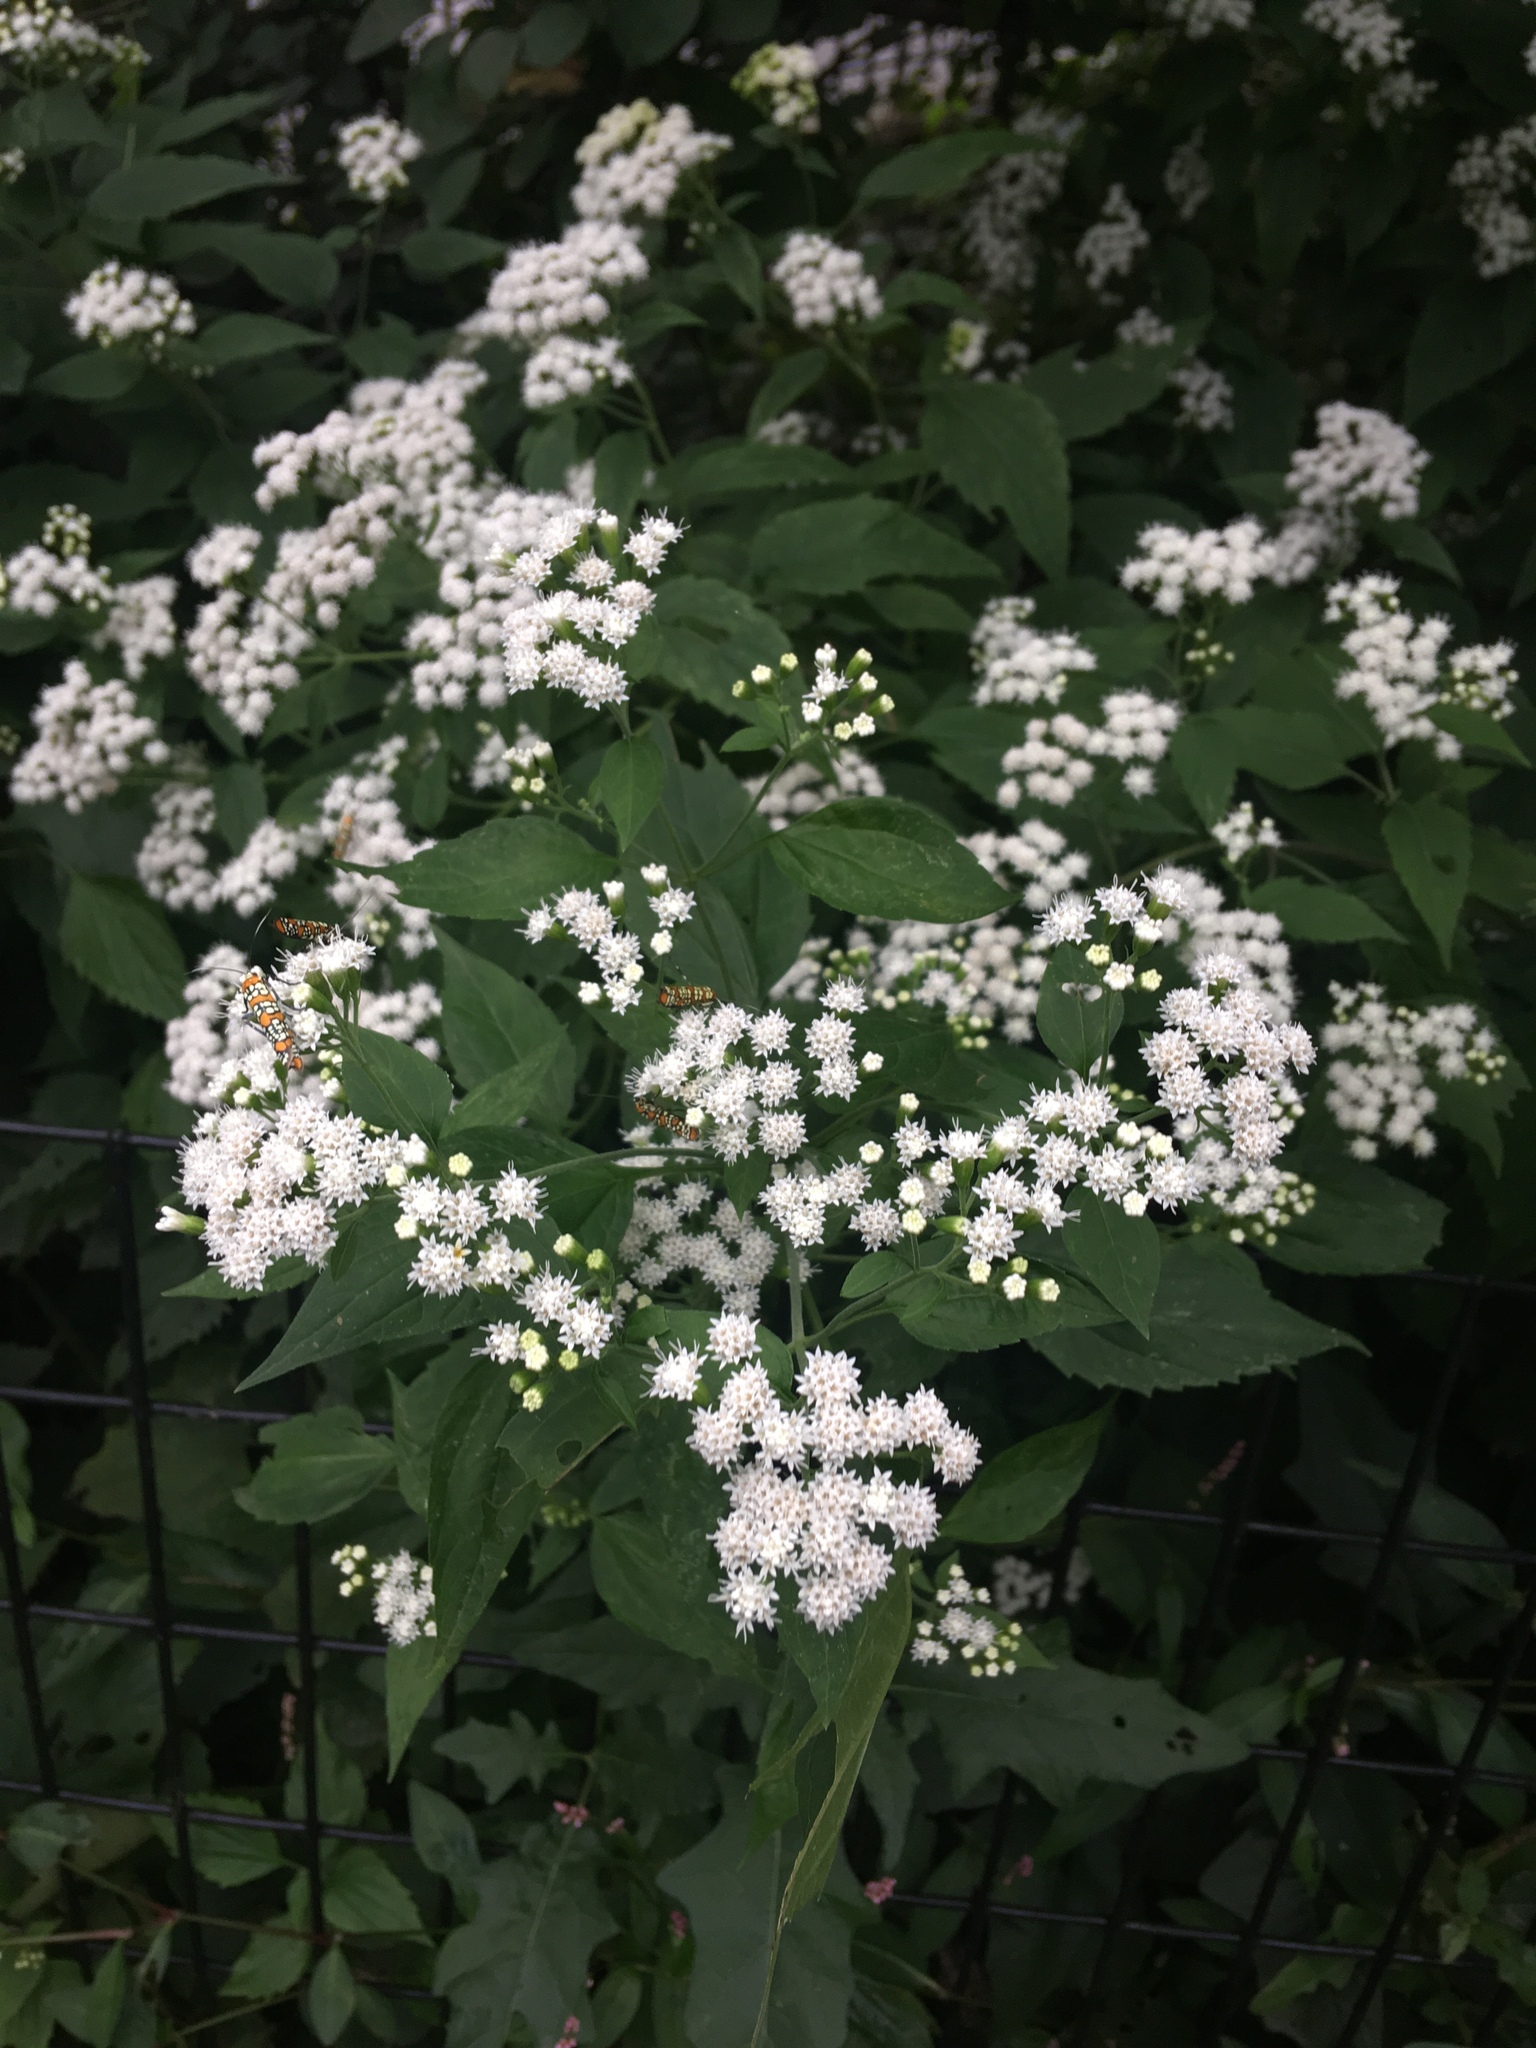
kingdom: Plantae
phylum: Tracheophyta
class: Magnoliopsida
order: Asterales
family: Asteraceae
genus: Ageratina
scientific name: Ageratina altissima
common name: White snakeroot
